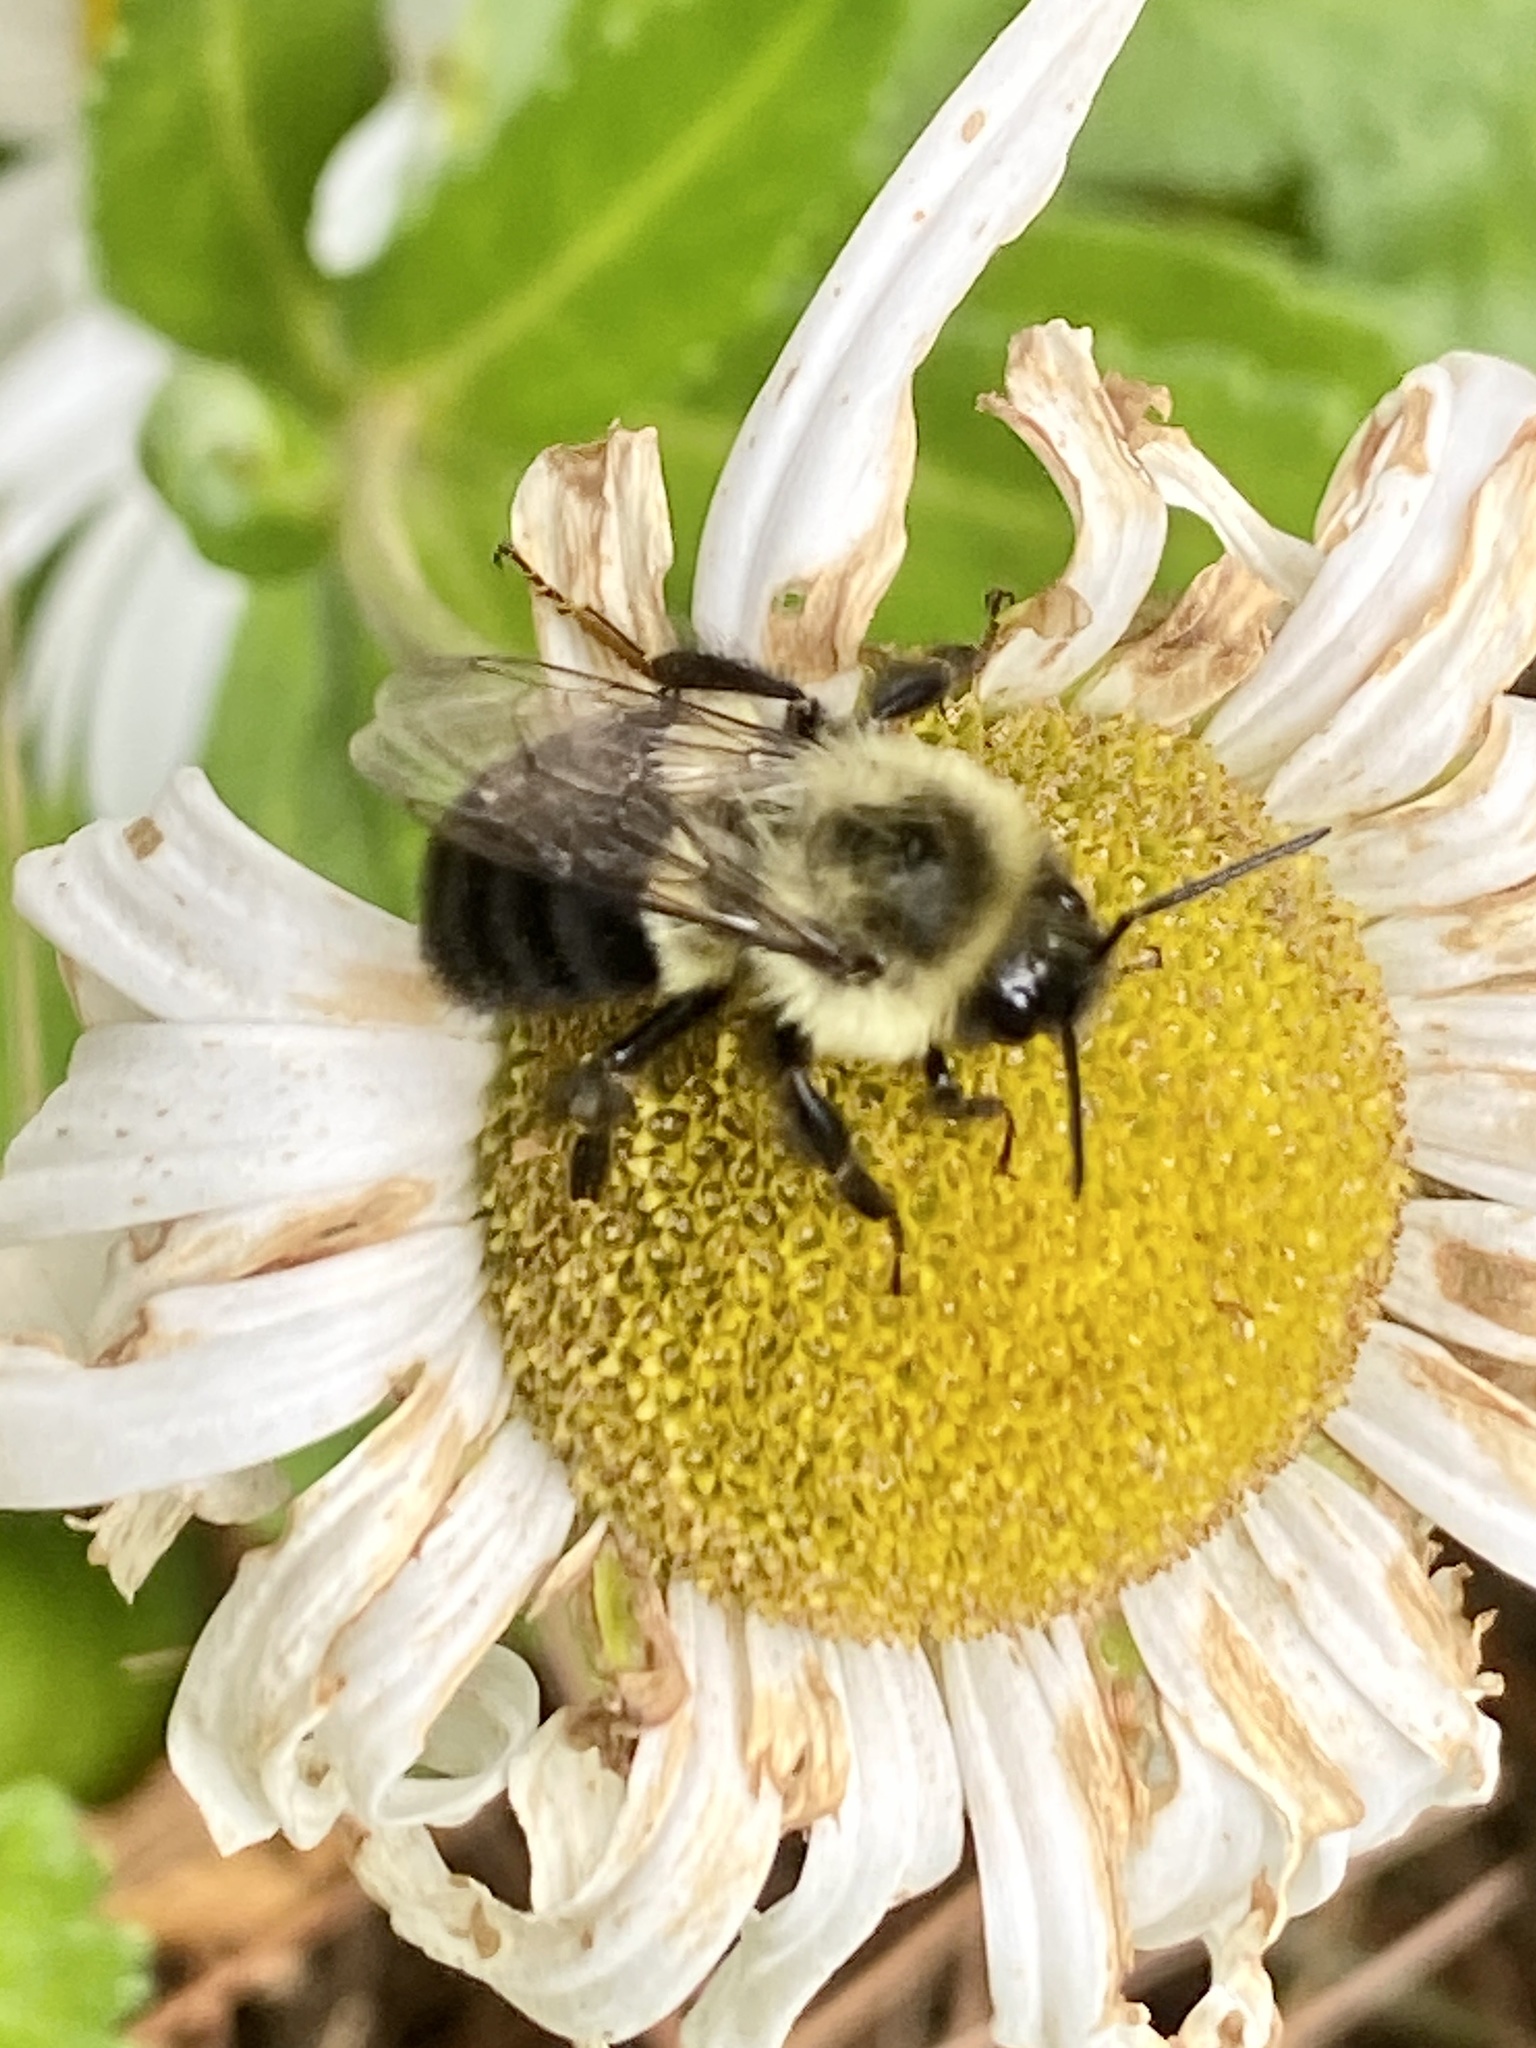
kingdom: Animalia
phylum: Arthropoda
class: Insecta
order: Hymenoptera
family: Apidae
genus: Bombus
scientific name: Bombus impatiens
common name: Common eastern bumble bee
